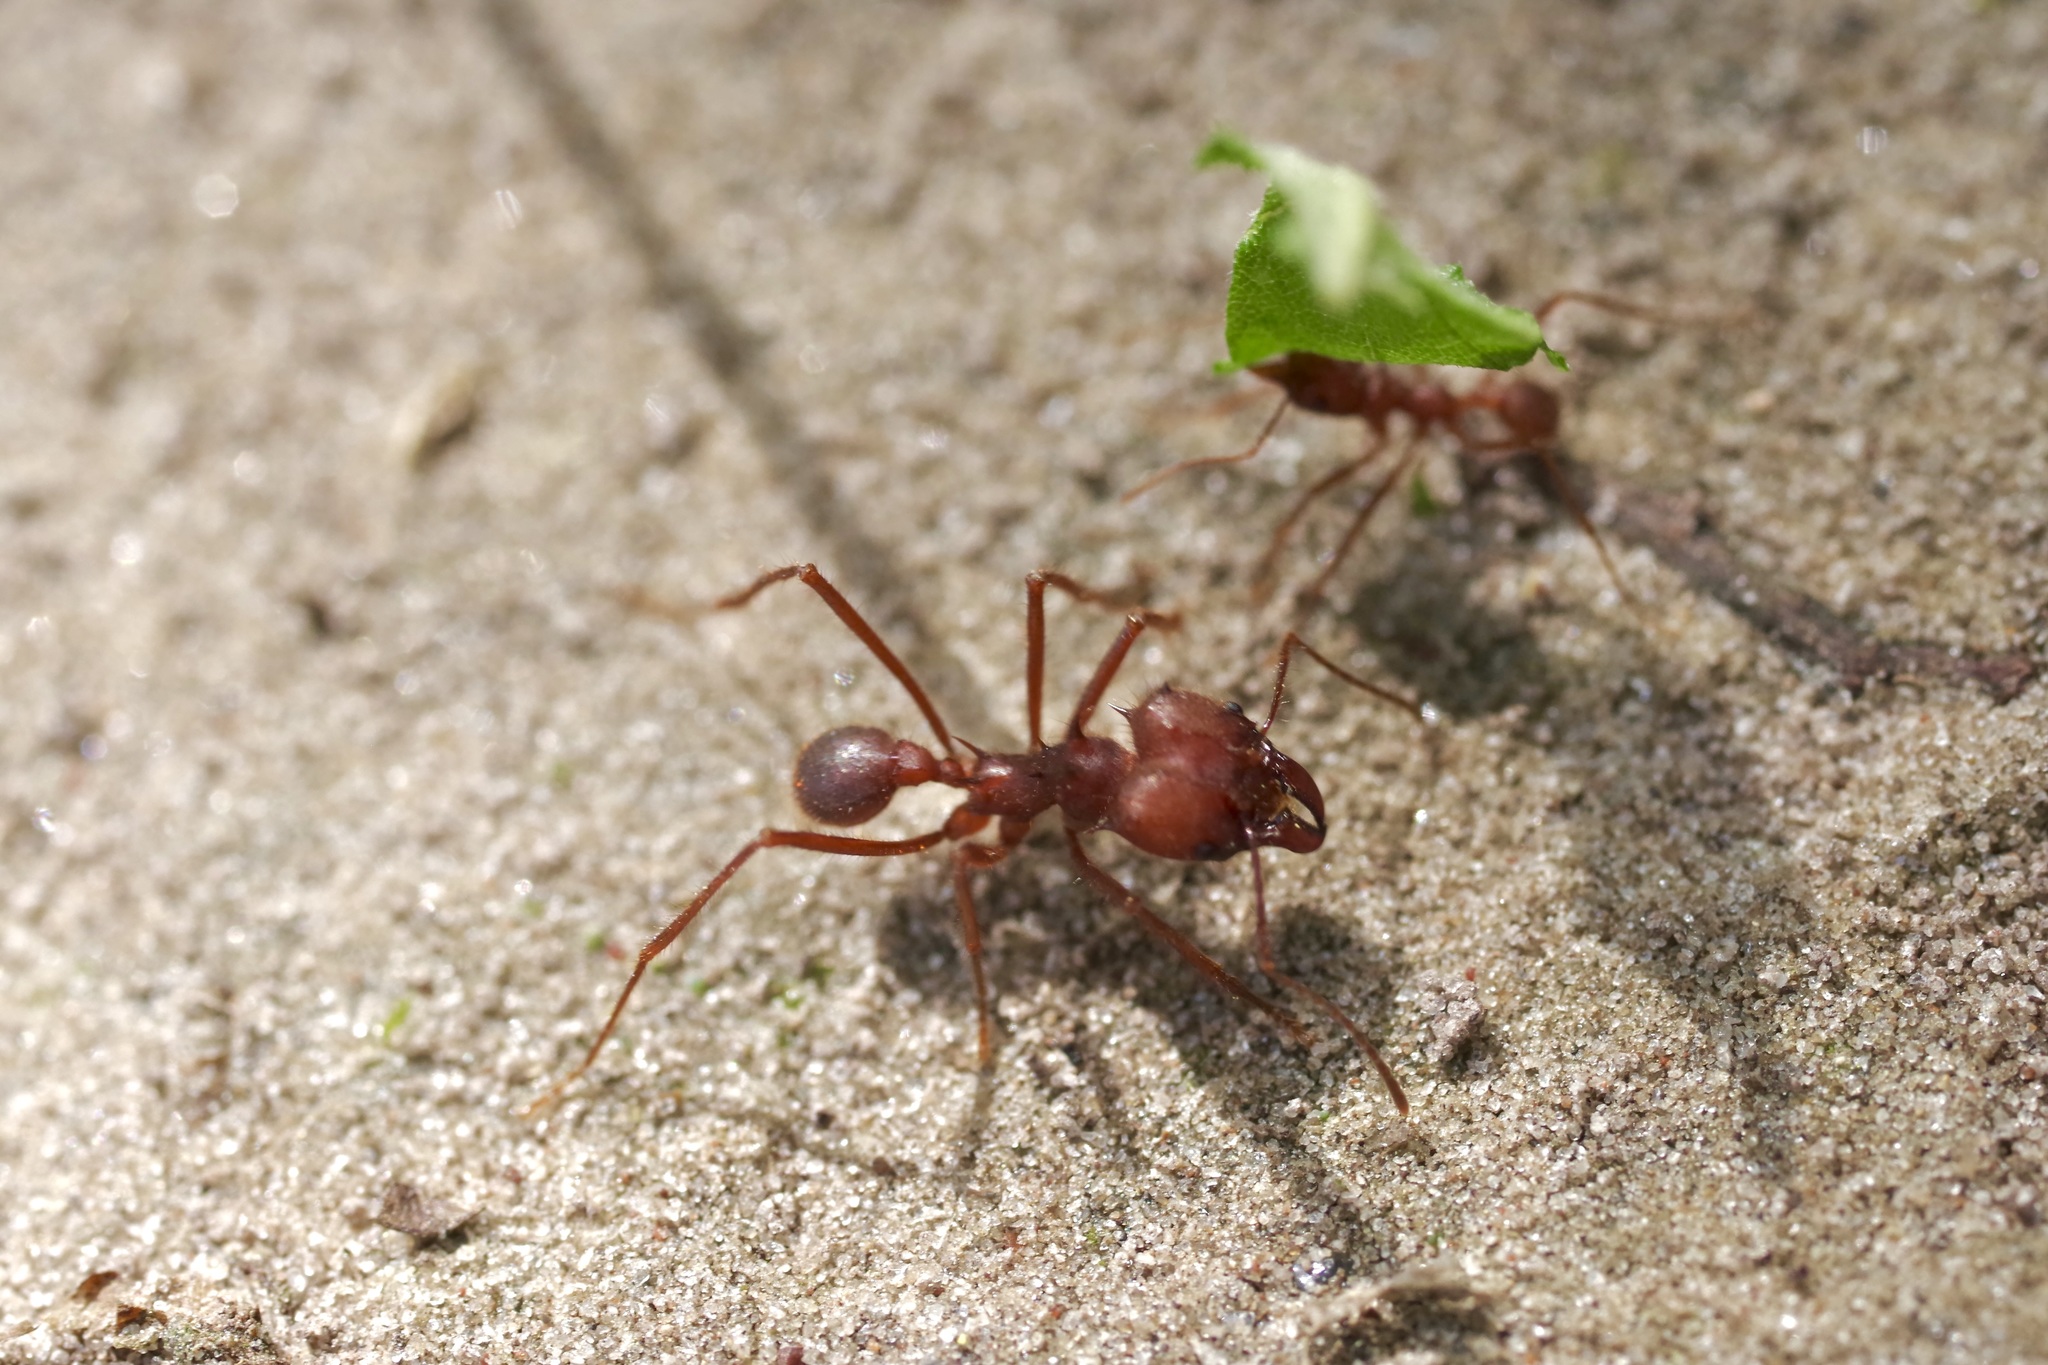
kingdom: Animalia
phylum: Arthropoda
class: Insecta
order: Hymenoptera
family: Formicidae
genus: Atta
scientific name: Atta texana
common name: Texas leafcutting ant
